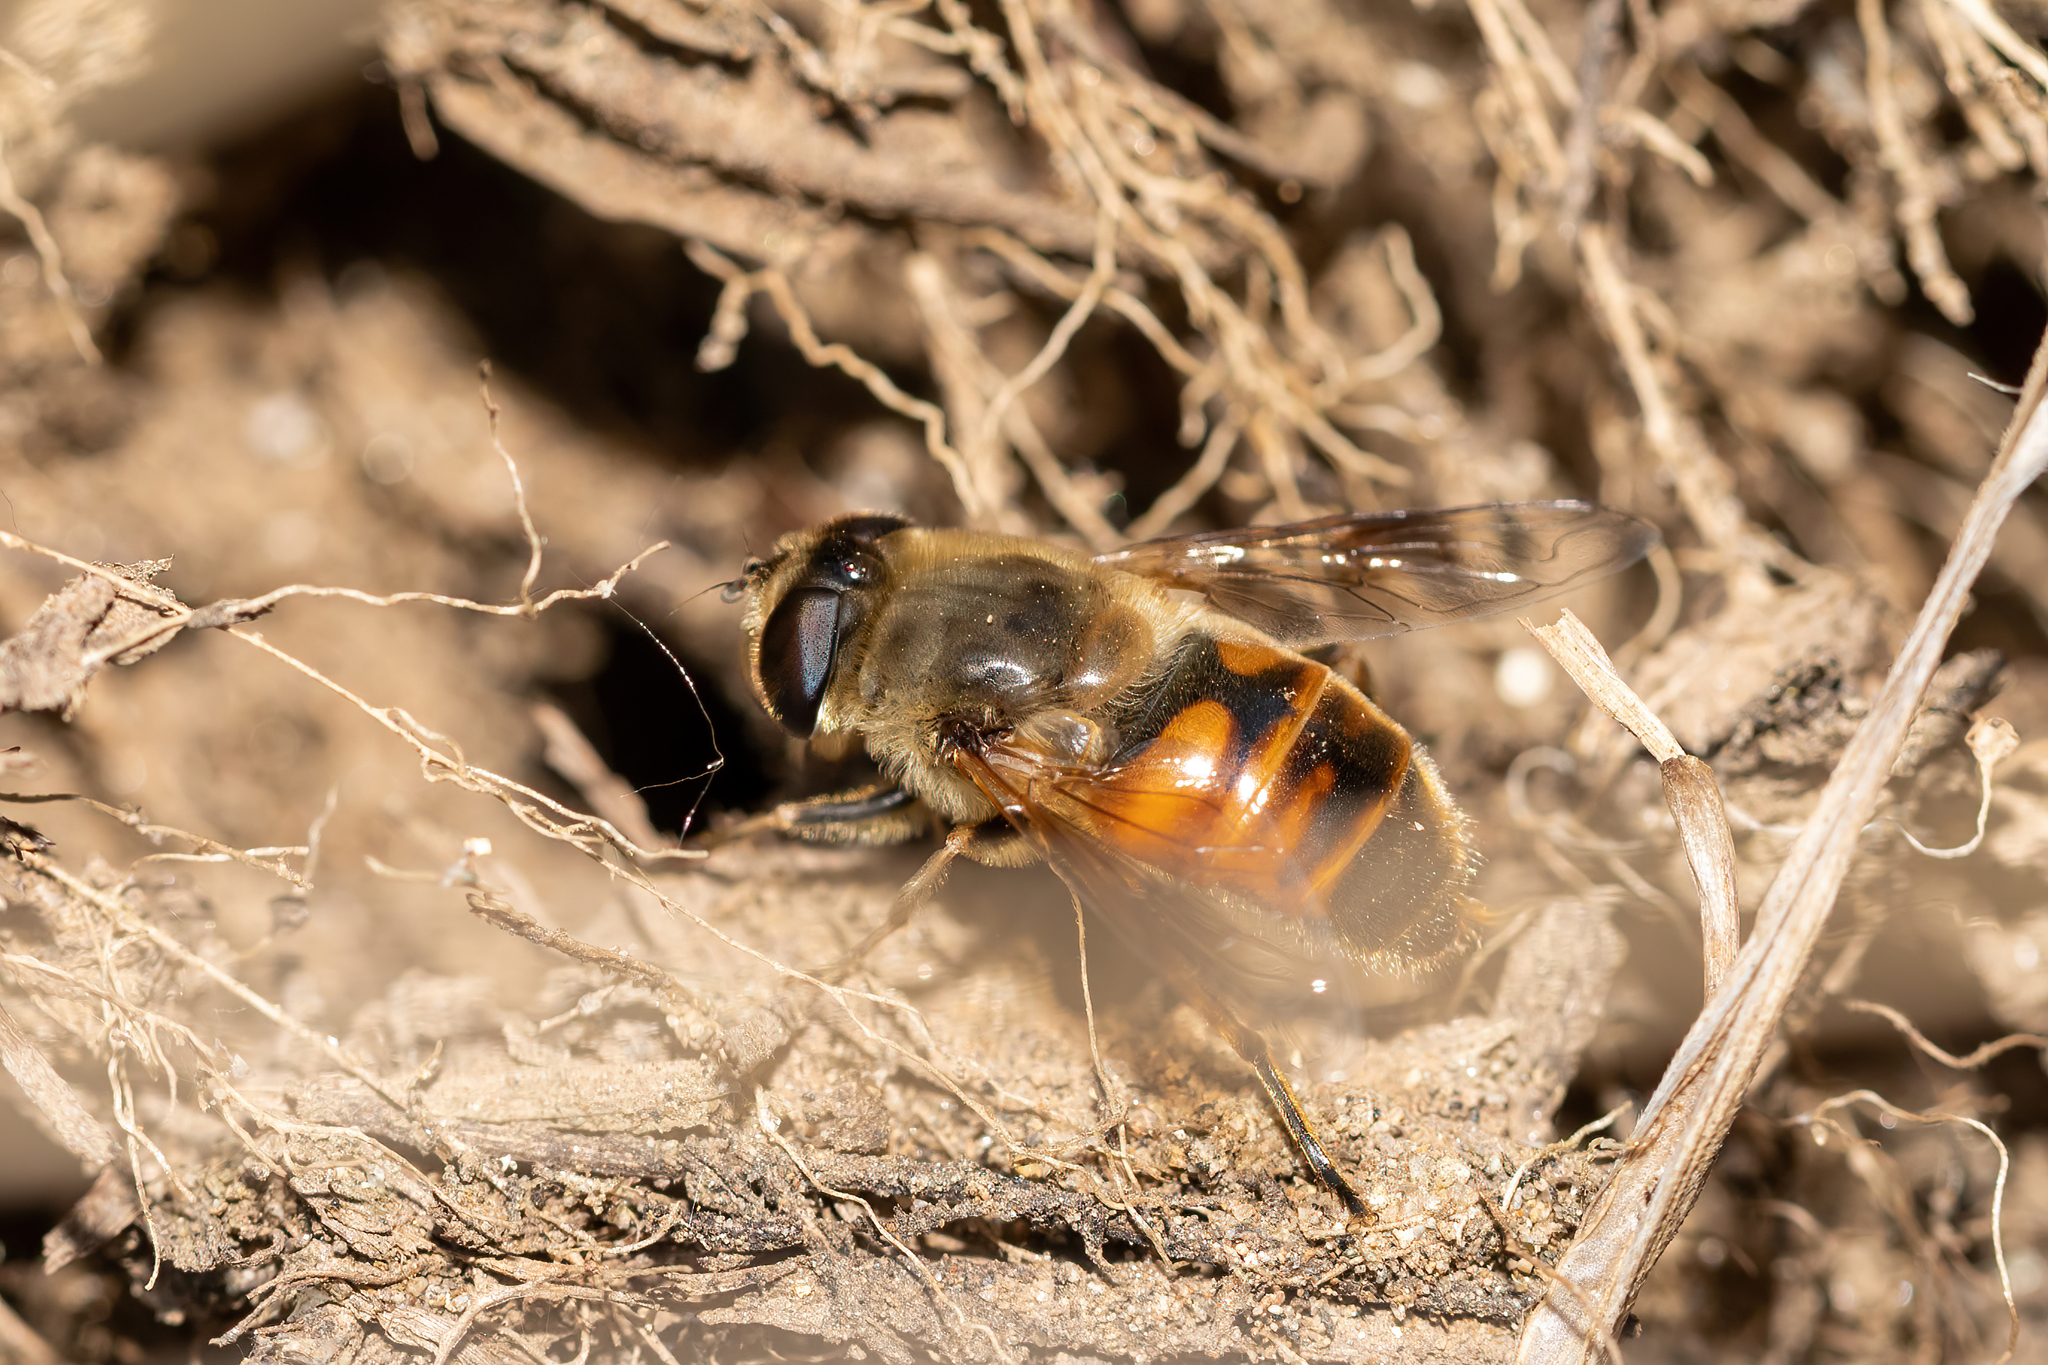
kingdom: Animalia
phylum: Arthropoda
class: Insecta
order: Diptera
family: Syrphidae
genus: Eristalis
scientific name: Eristalis tenax
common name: Drone fly
